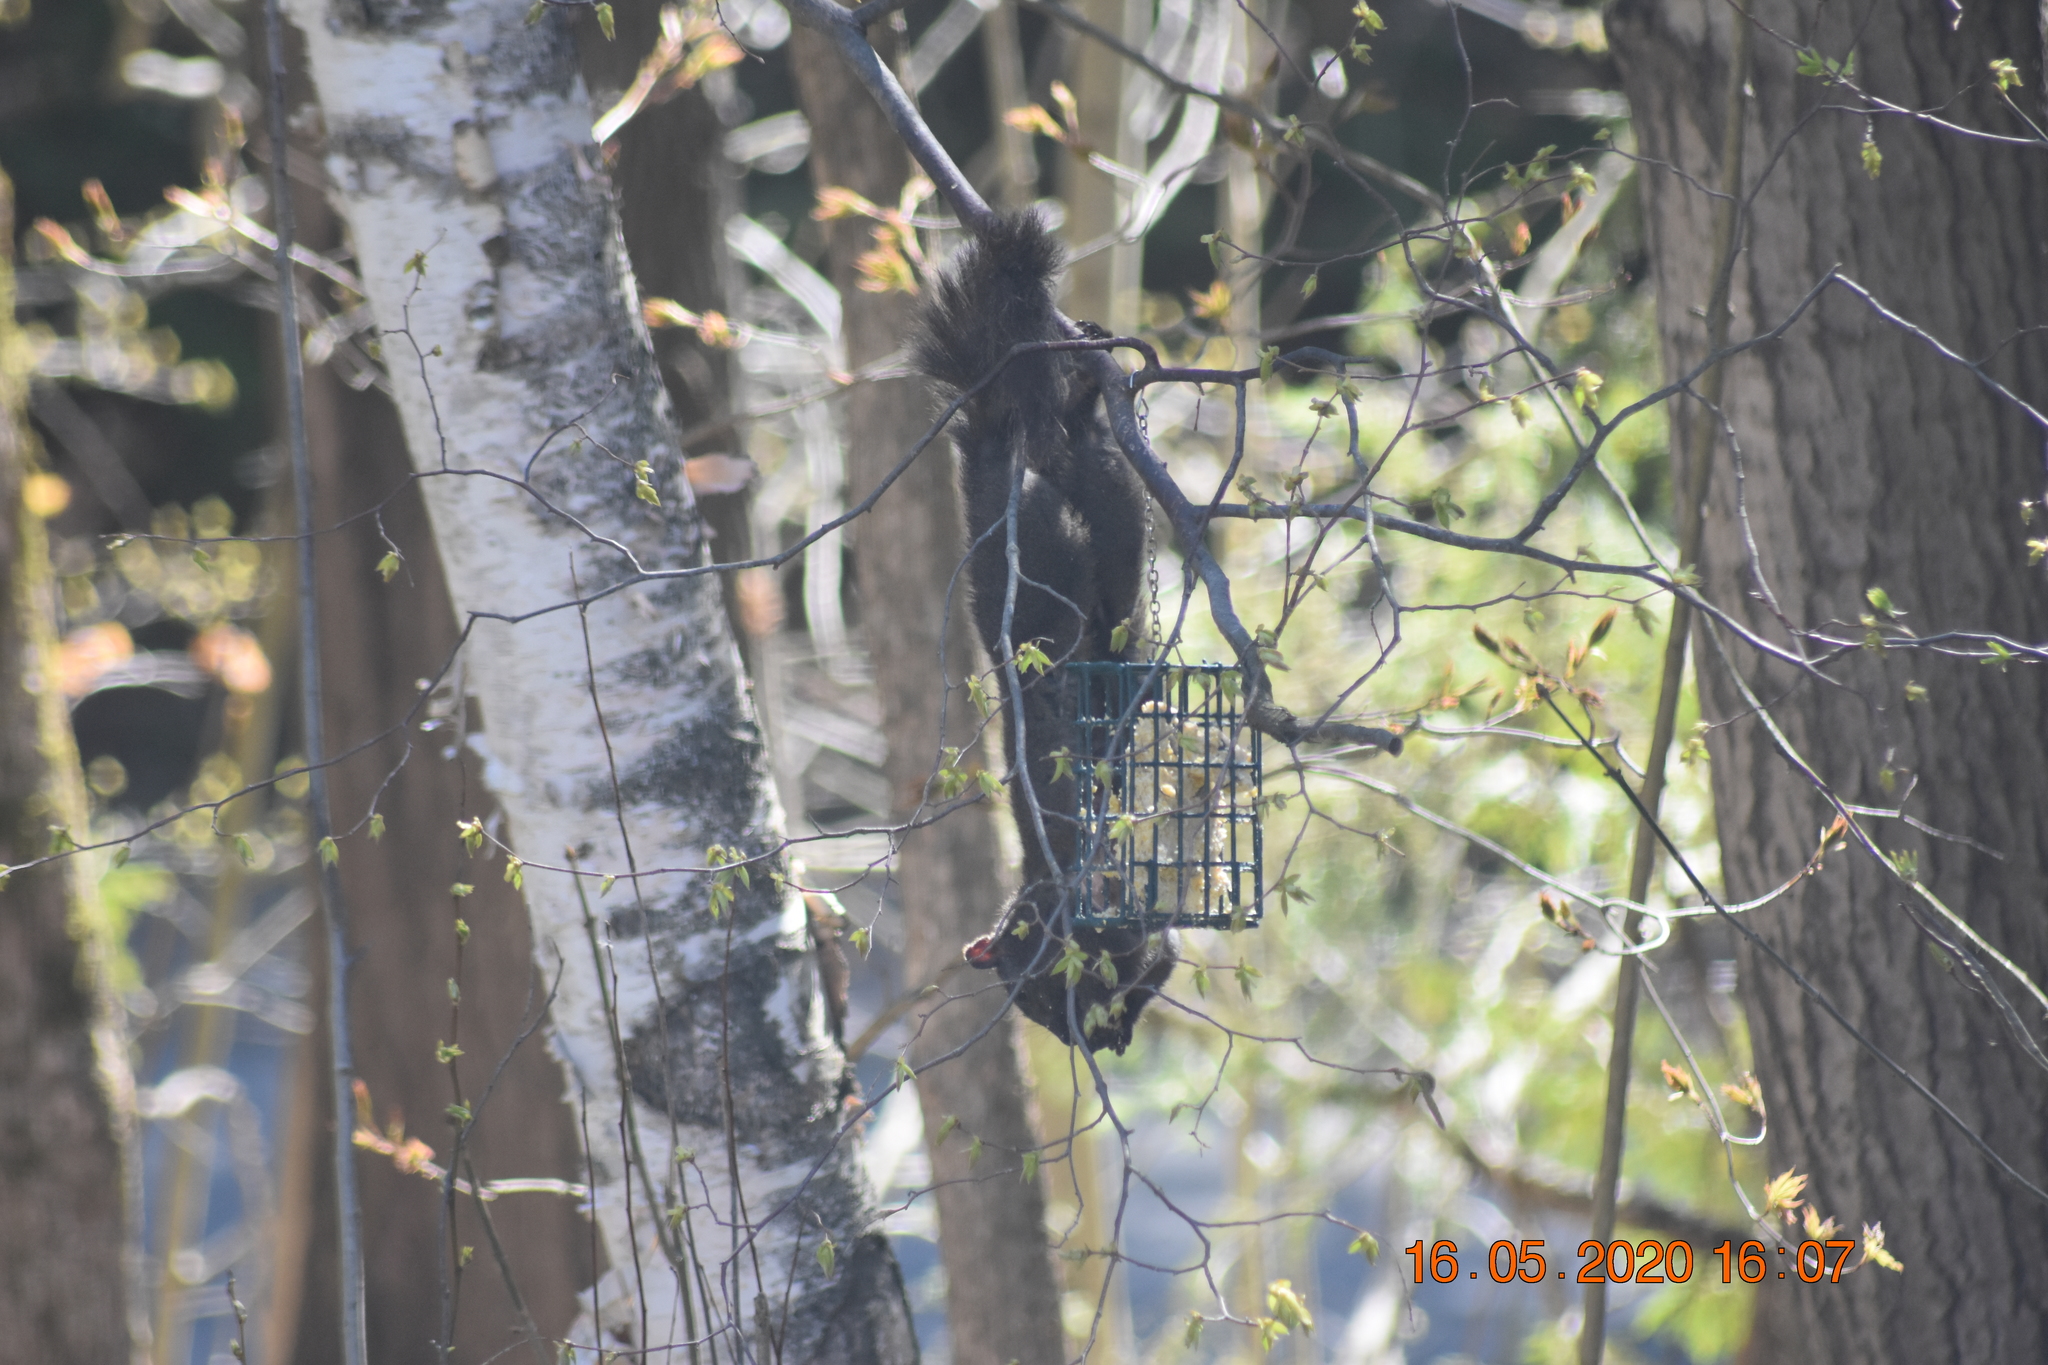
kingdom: Animalia
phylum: Chordata
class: Mammalia
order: Rodentia
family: Sciuridae
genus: Sciurus
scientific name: Sciurus carolinensis
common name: Eastern gray squirrel
